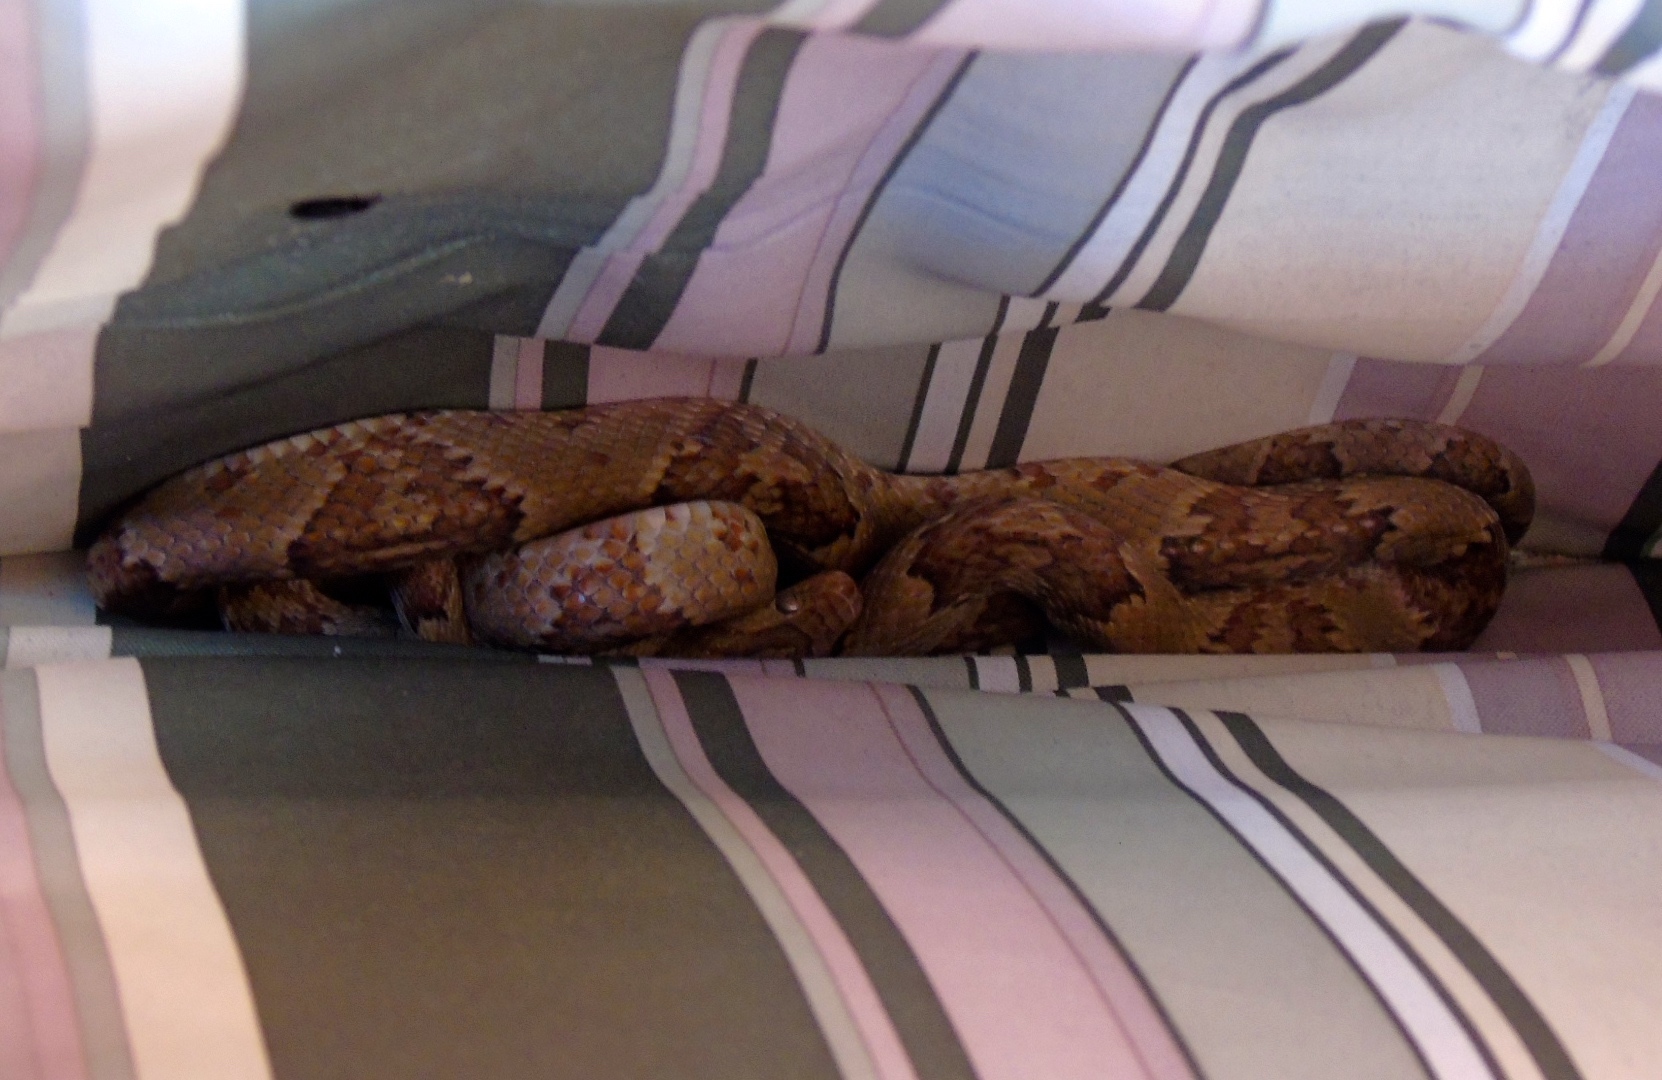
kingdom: Animalia
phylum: Chordata
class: Squamata
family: Colubridae
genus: Trimorphodon
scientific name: Trimorphodon paucimaculatus
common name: Sinaloan lyresnake
